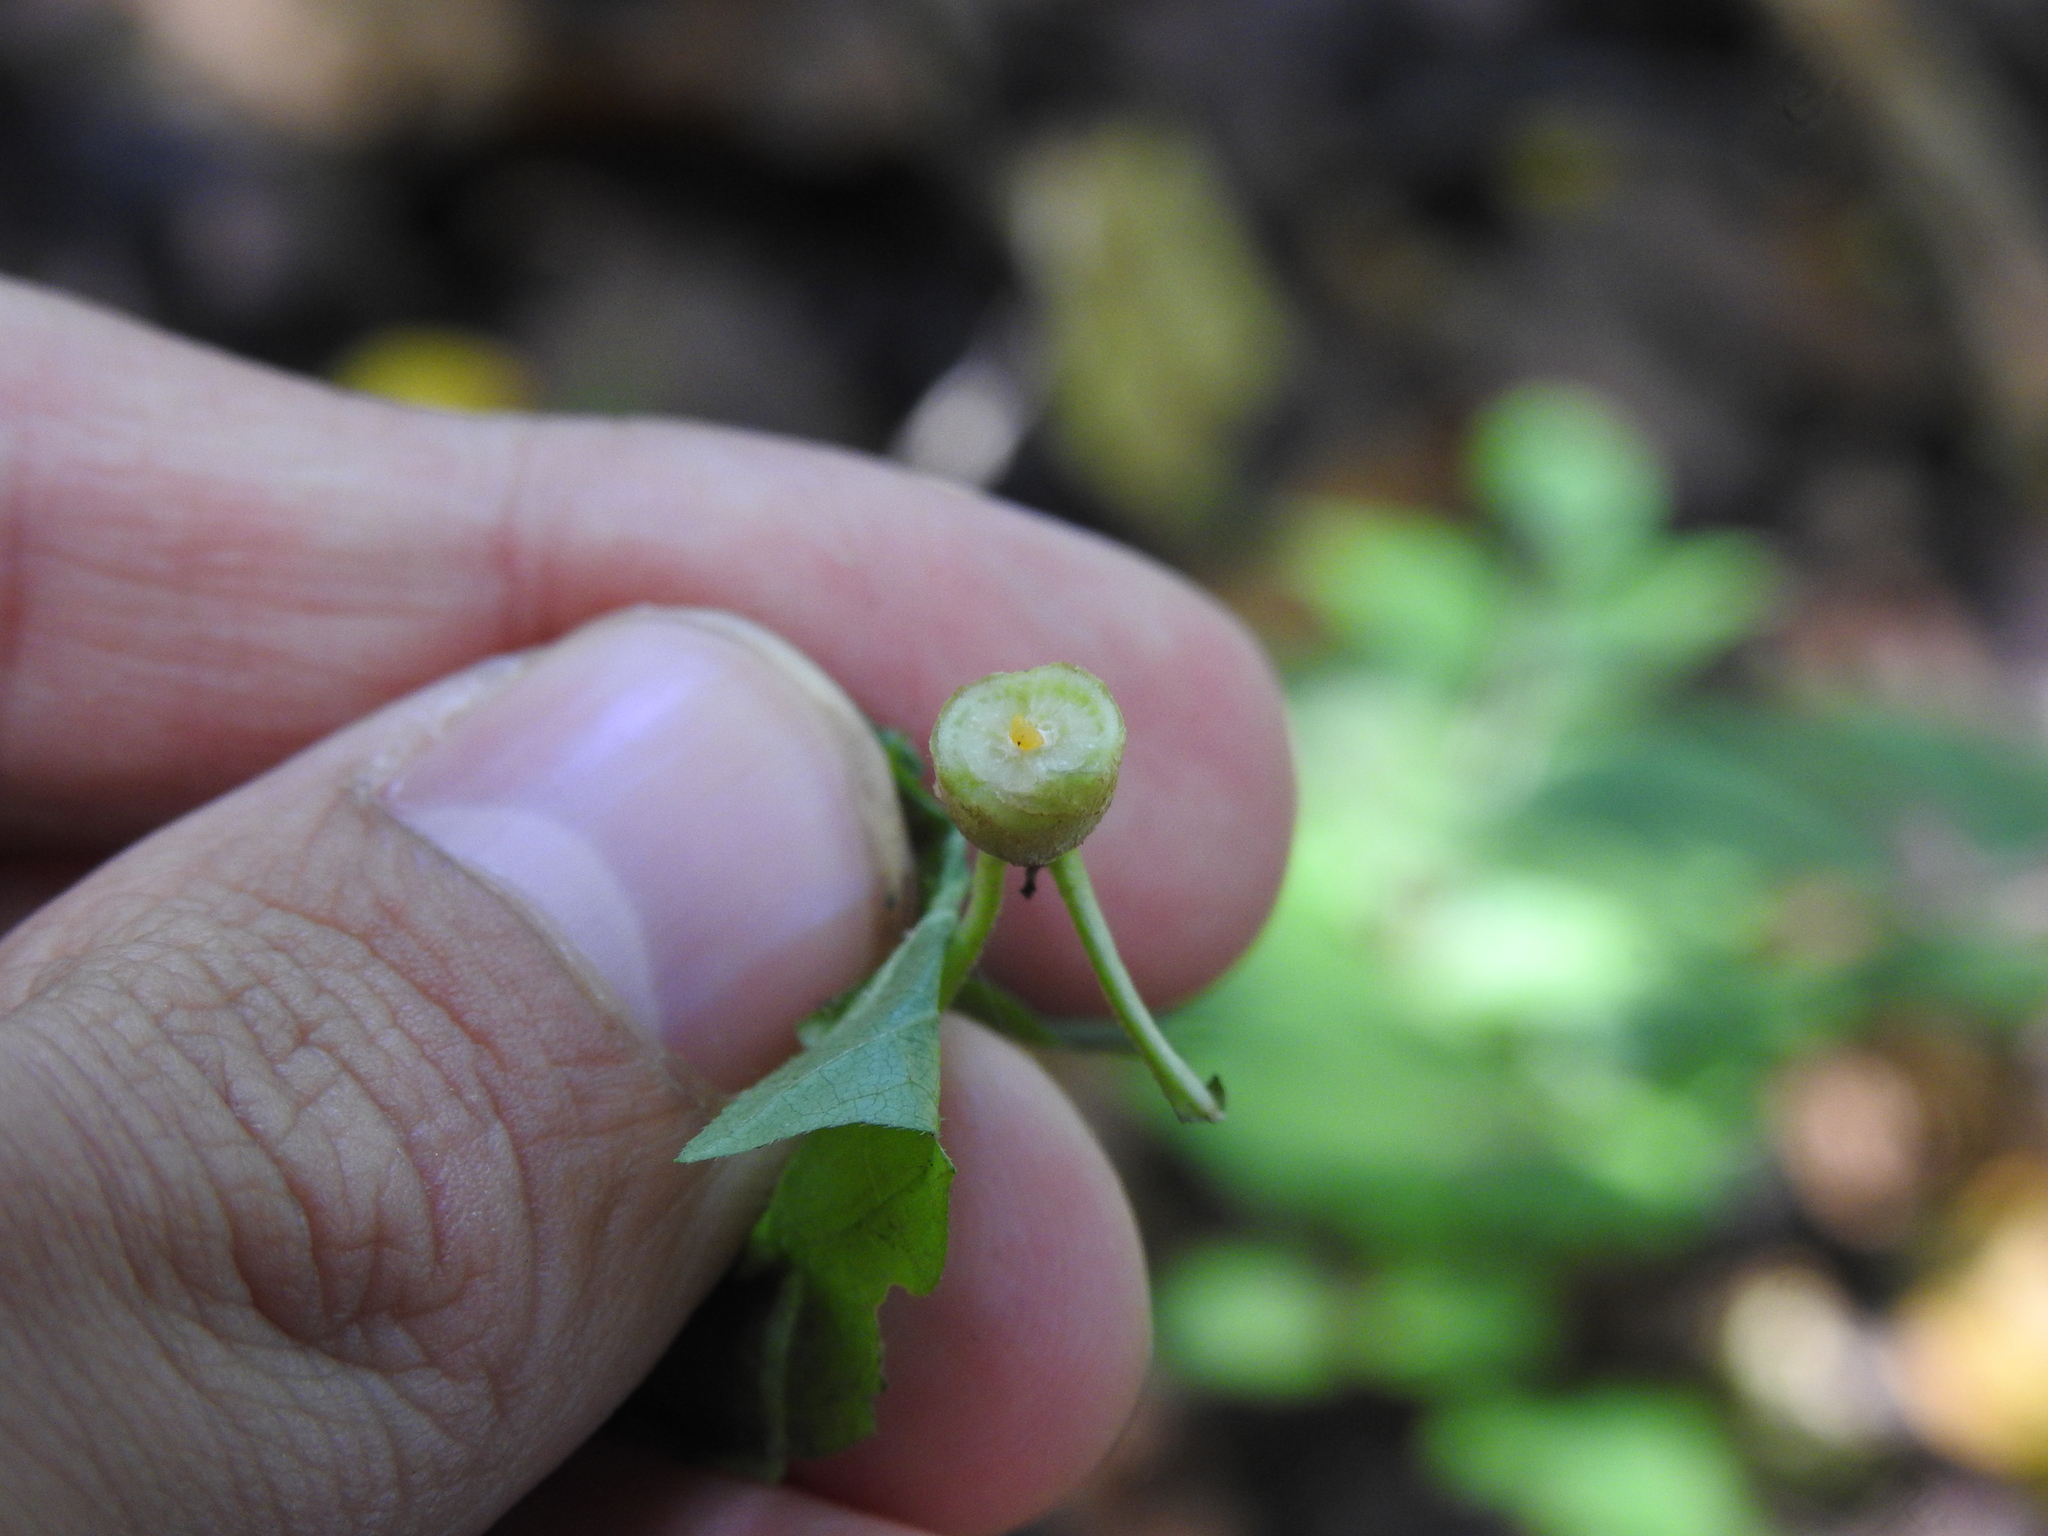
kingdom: Animalia
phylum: Arthropoda
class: Insecta
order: Diptera
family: Cecidomyiidae
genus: Neolasioptera
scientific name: Neolasioptera eupatorii
